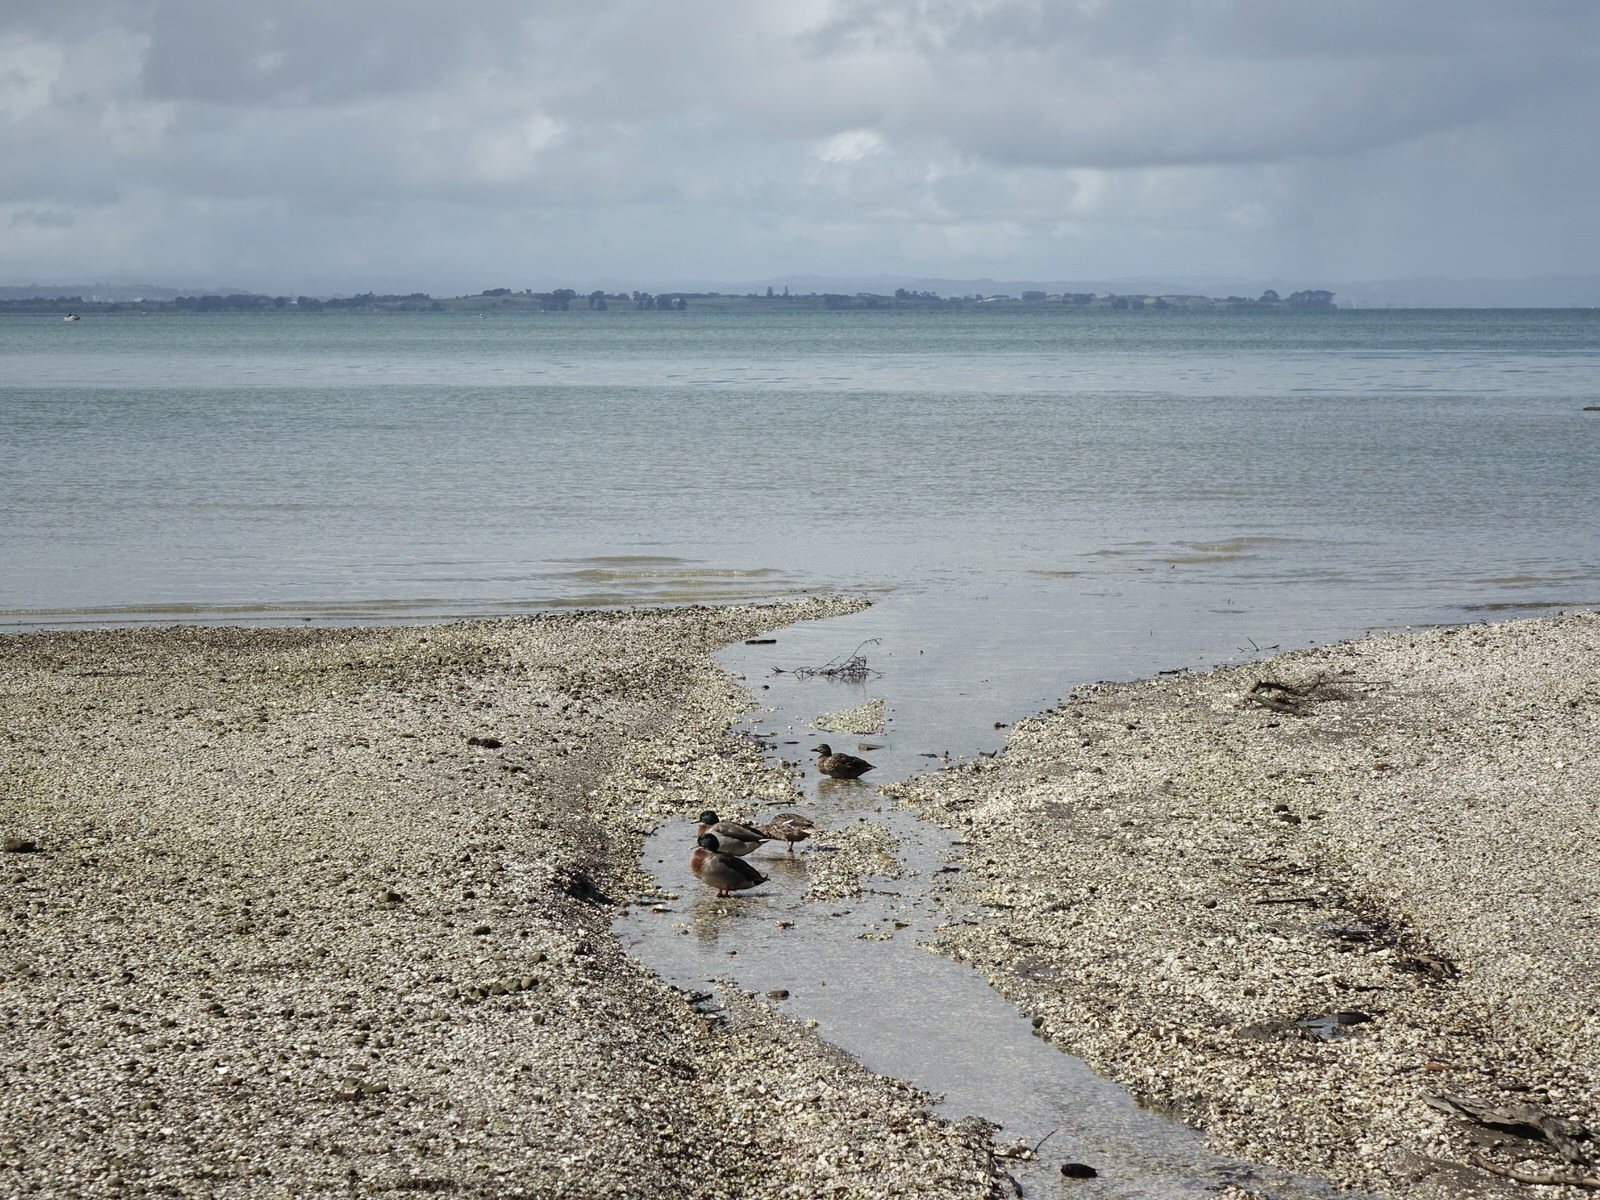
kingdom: Animalia
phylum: Chordata
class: Aves
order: Anseriformes
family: Anatidae
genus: Anas
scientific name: Anas platyrhynchos
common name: Mallard
